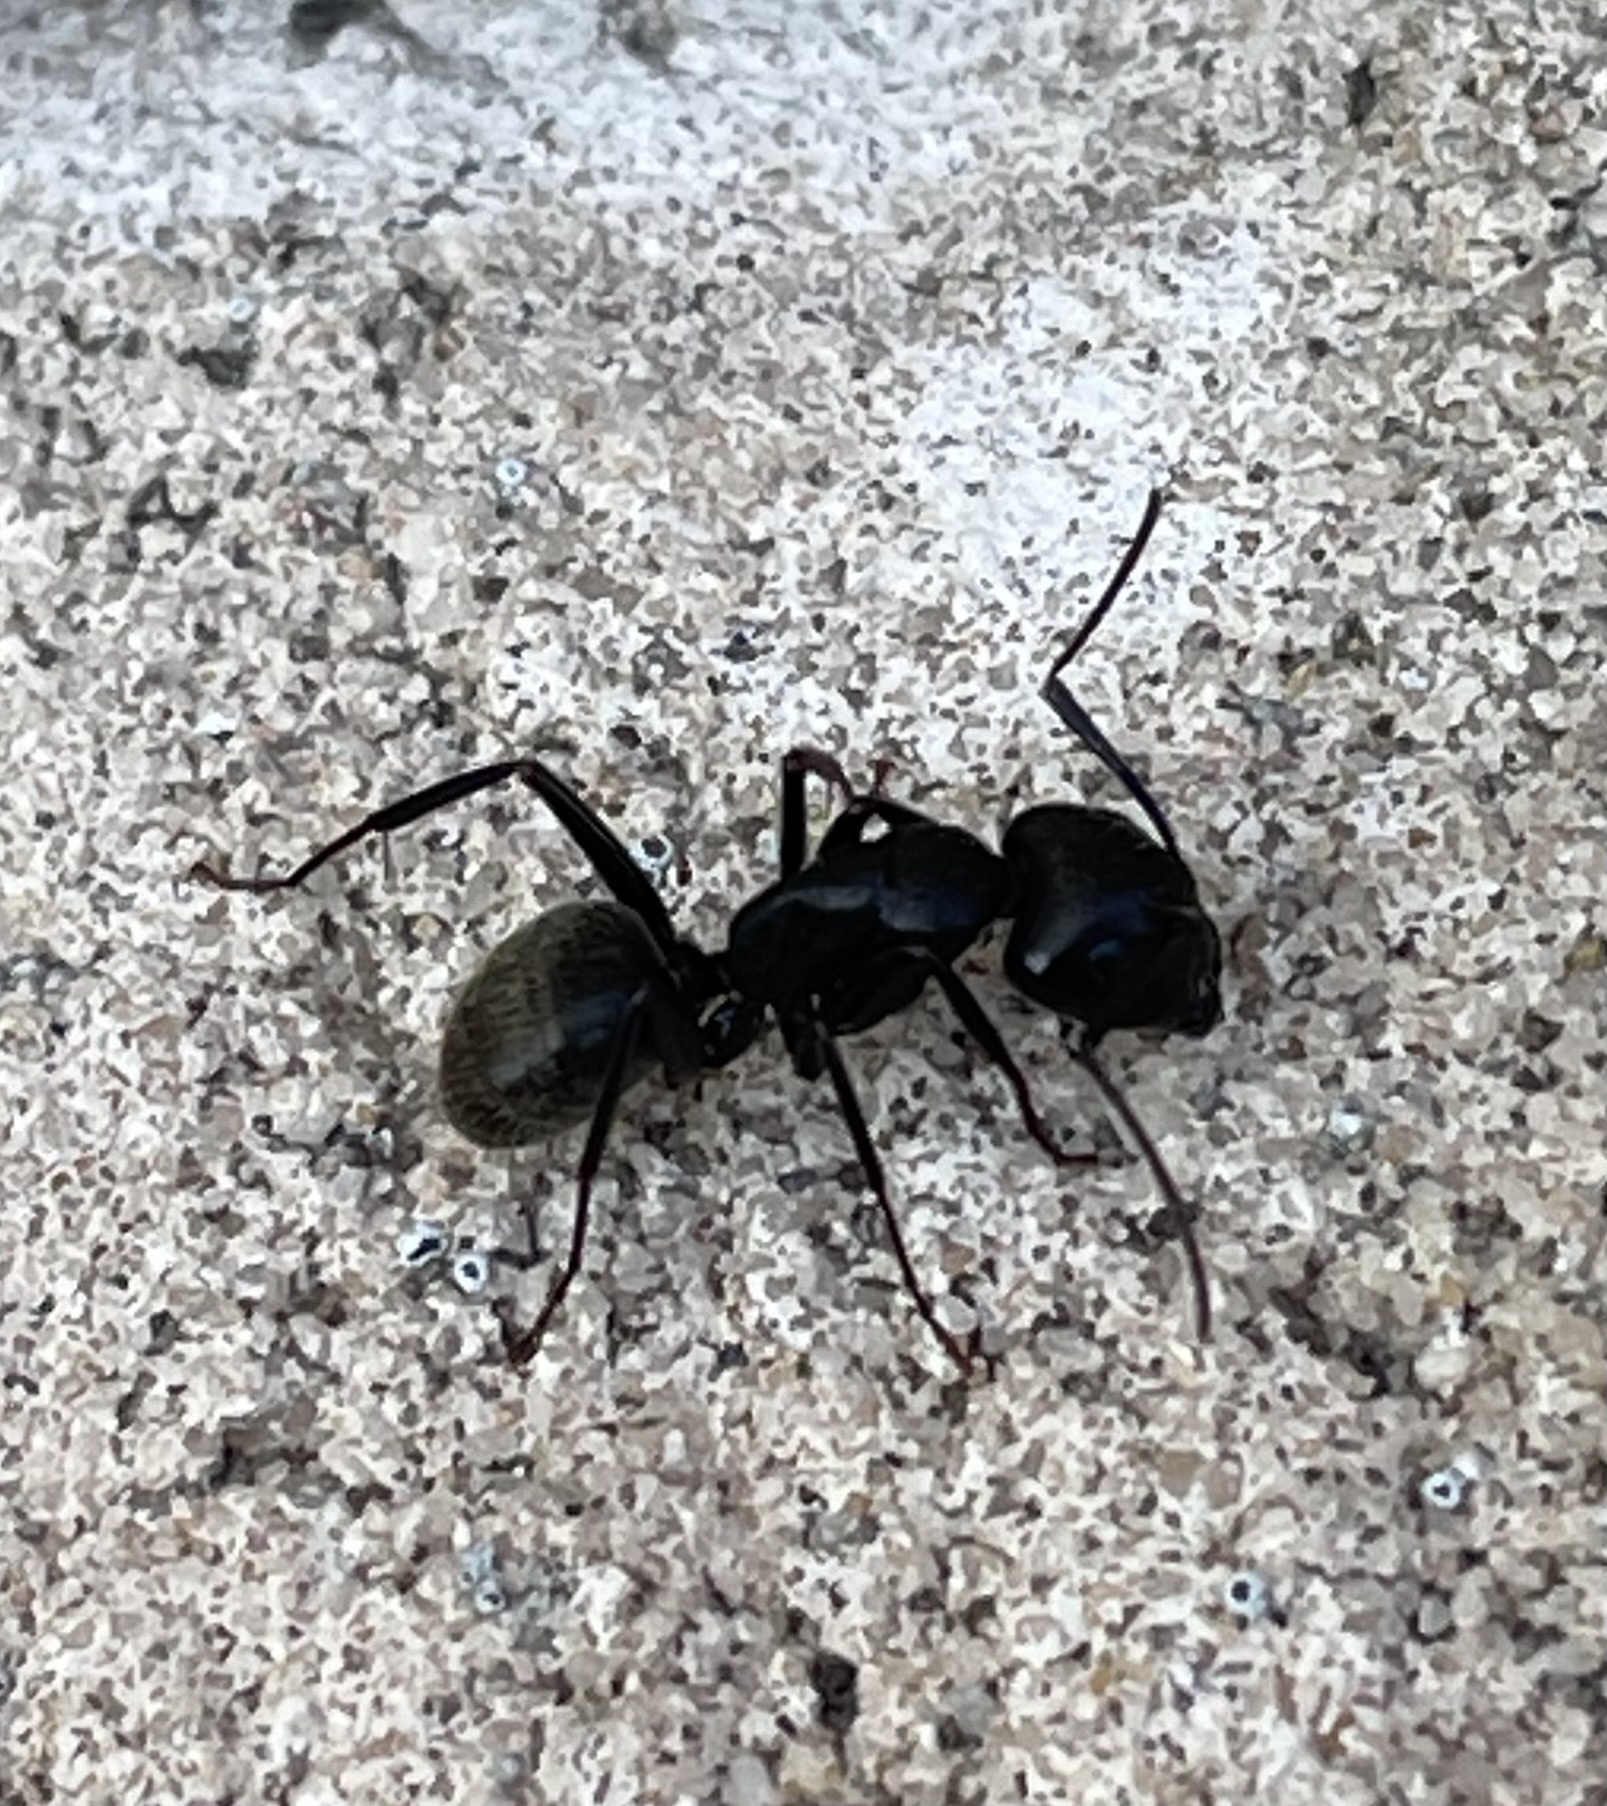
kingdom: Animalia
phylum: Arthropoda
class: Insecta
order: Hymenoptera
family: Formicidae
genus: Camponotus
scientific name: Camponotus pennsylvanicus
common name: Black carpenter ant
